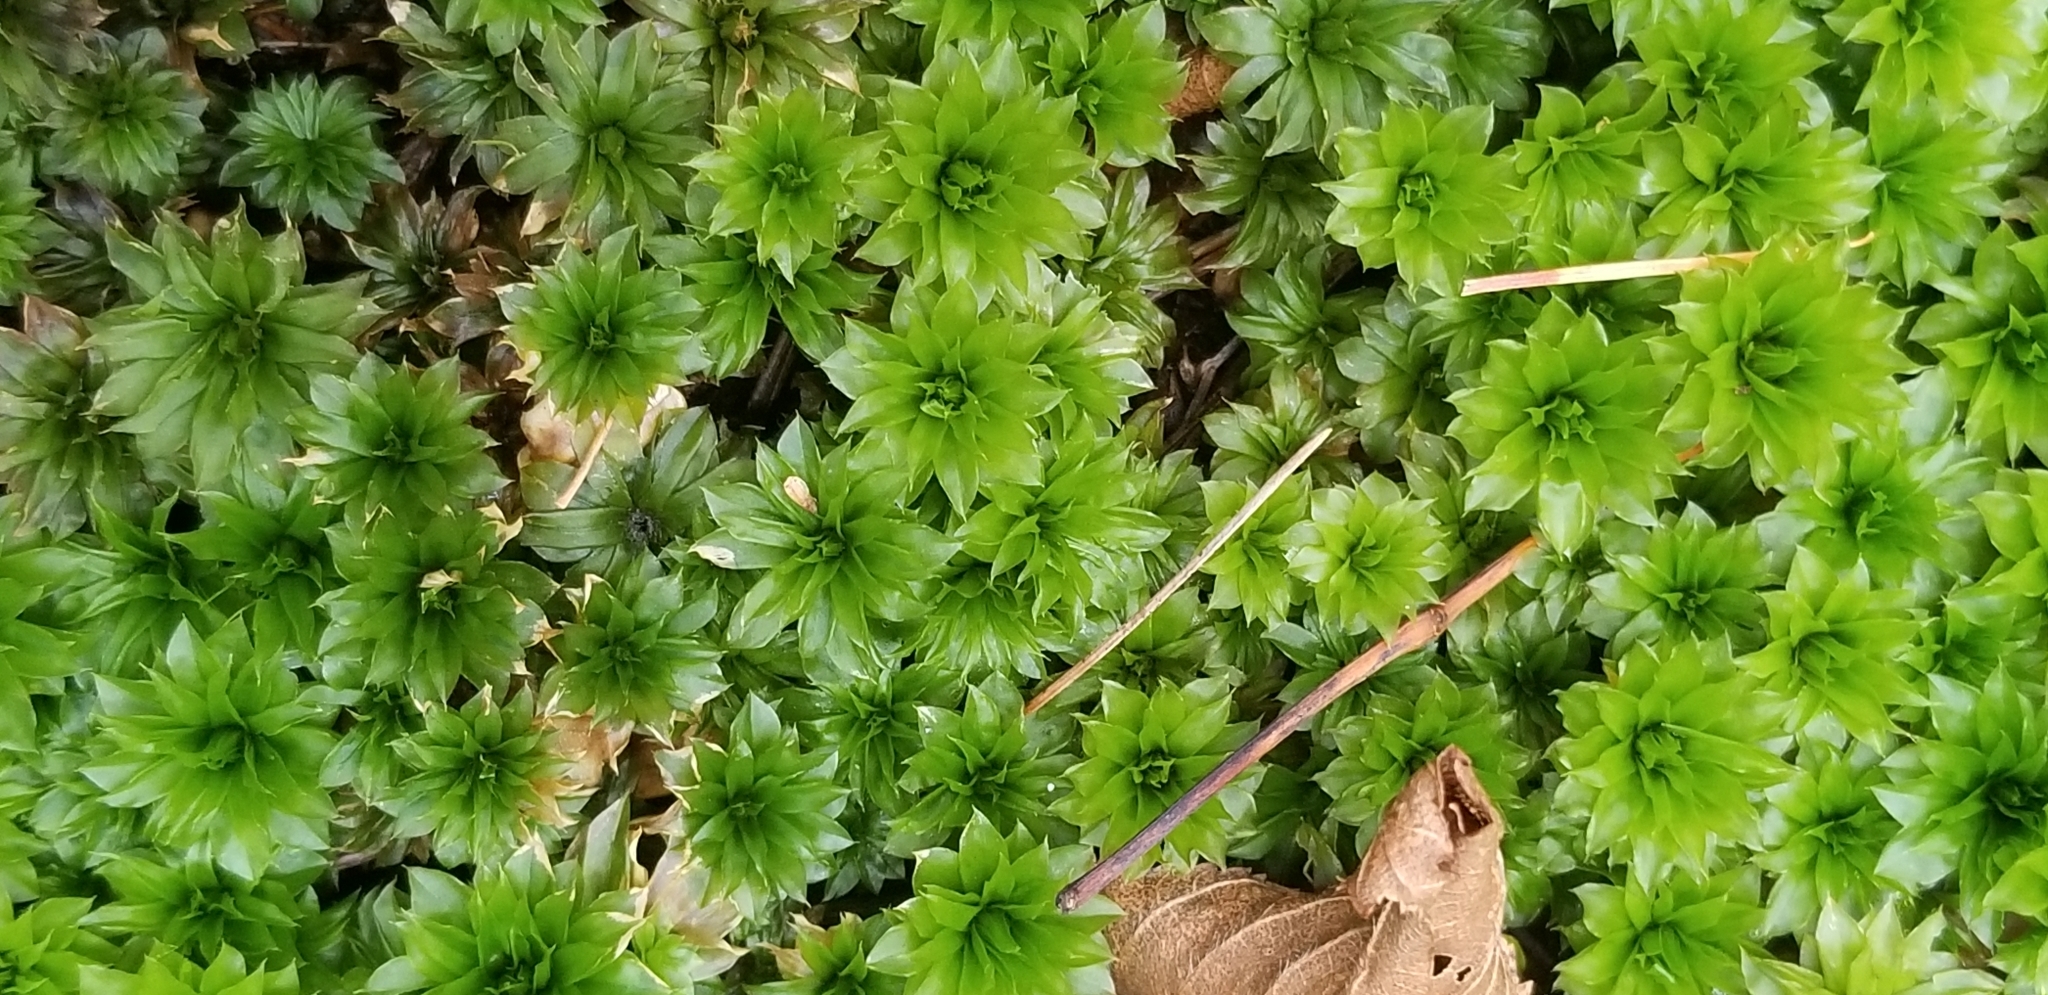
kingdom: Plantae
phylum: Bryophyta
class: Bryopsida
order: Bryales
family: Bryaceae
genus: Rhodobryum
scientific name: Rhodobryum ontariense
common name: Ontario rhodobryum moss
